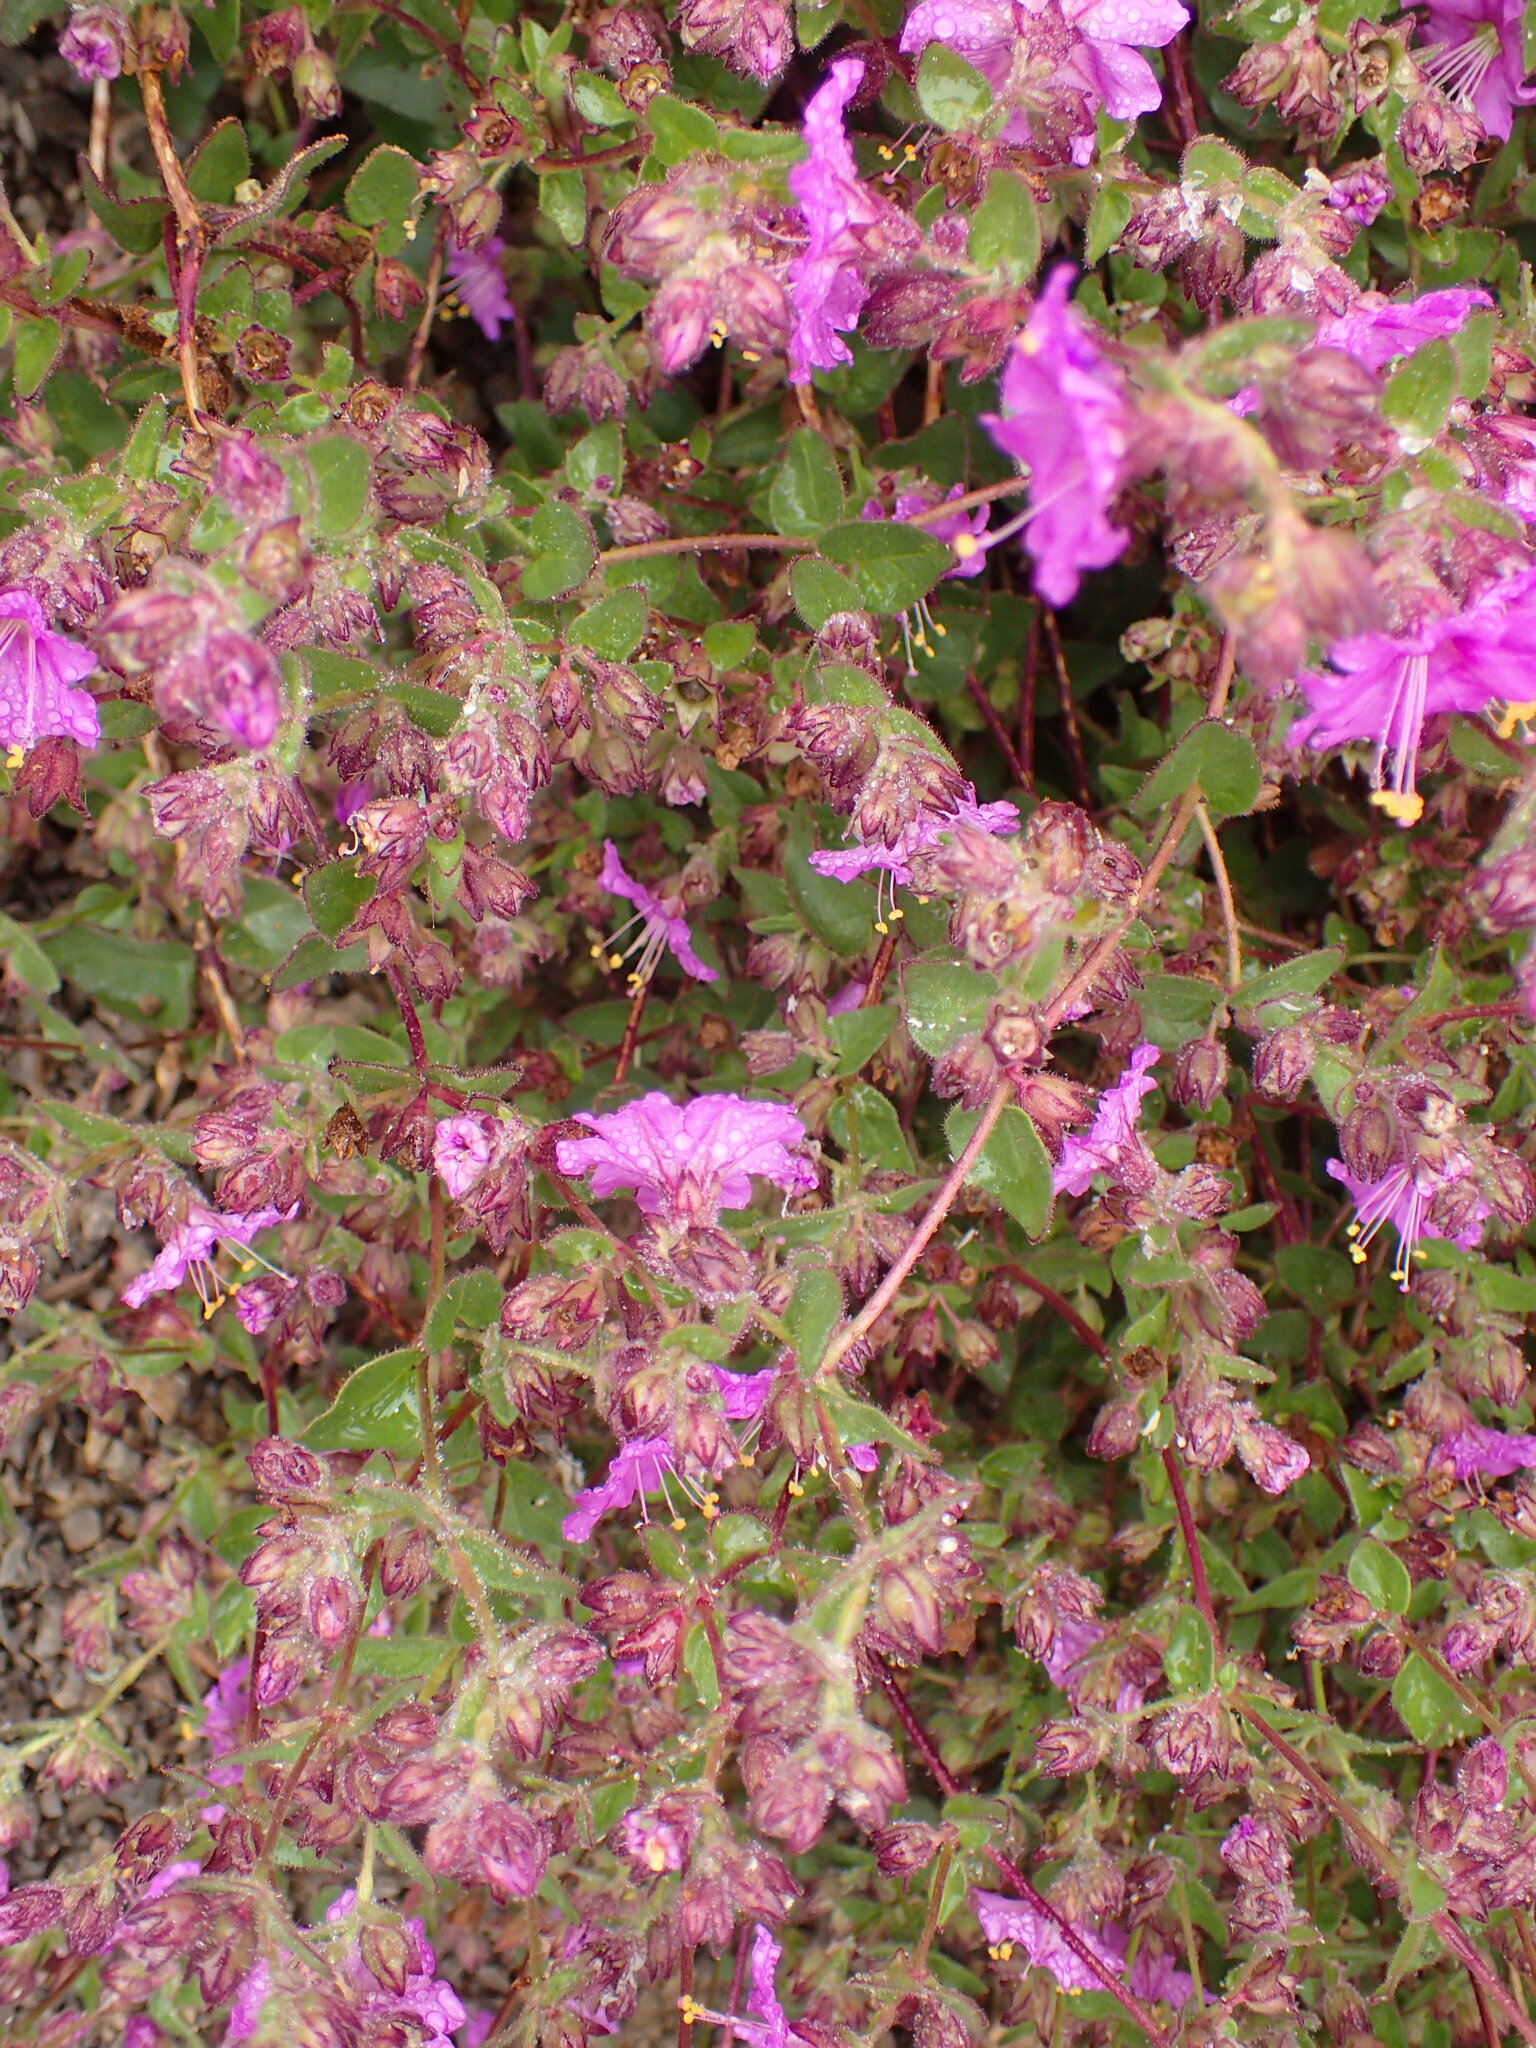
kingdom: Plantae
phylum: Tracheophyta
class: Magnoliopsida
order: Caryophyllales
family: Nyctaginaceae
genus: Mirabilis
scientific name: Mirabilis laevis
